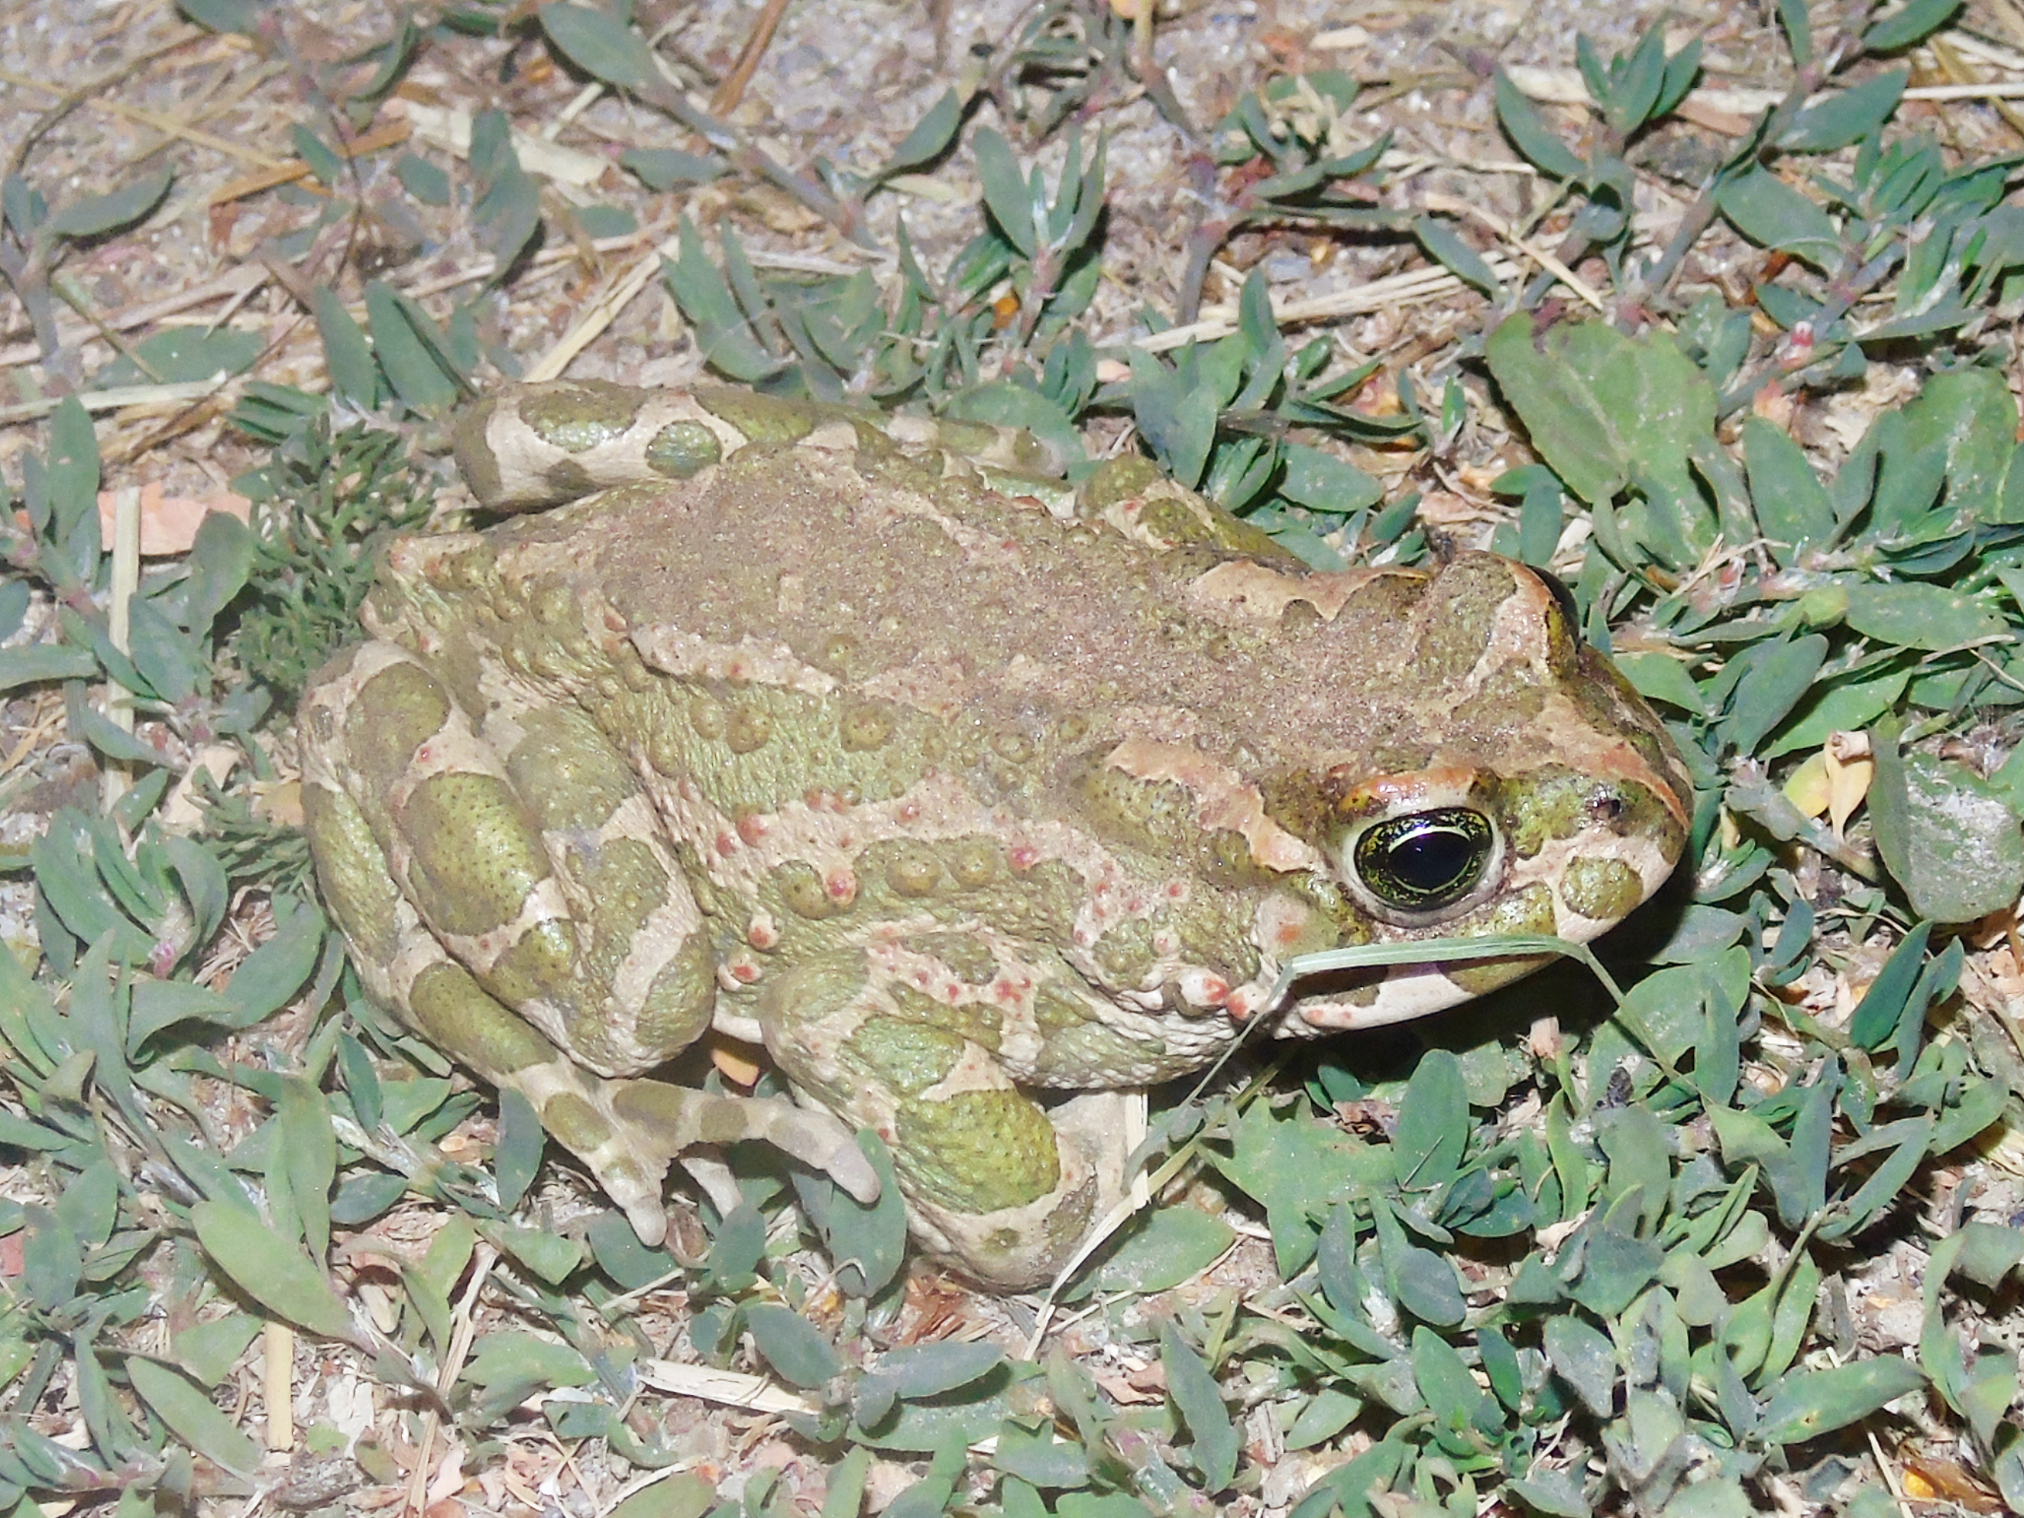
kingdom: Animalia
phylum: Chordata
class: Amphibia
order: Anura
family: Bufonidae
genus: Bufotes
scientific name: Bufotes viridis
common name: European green toad
